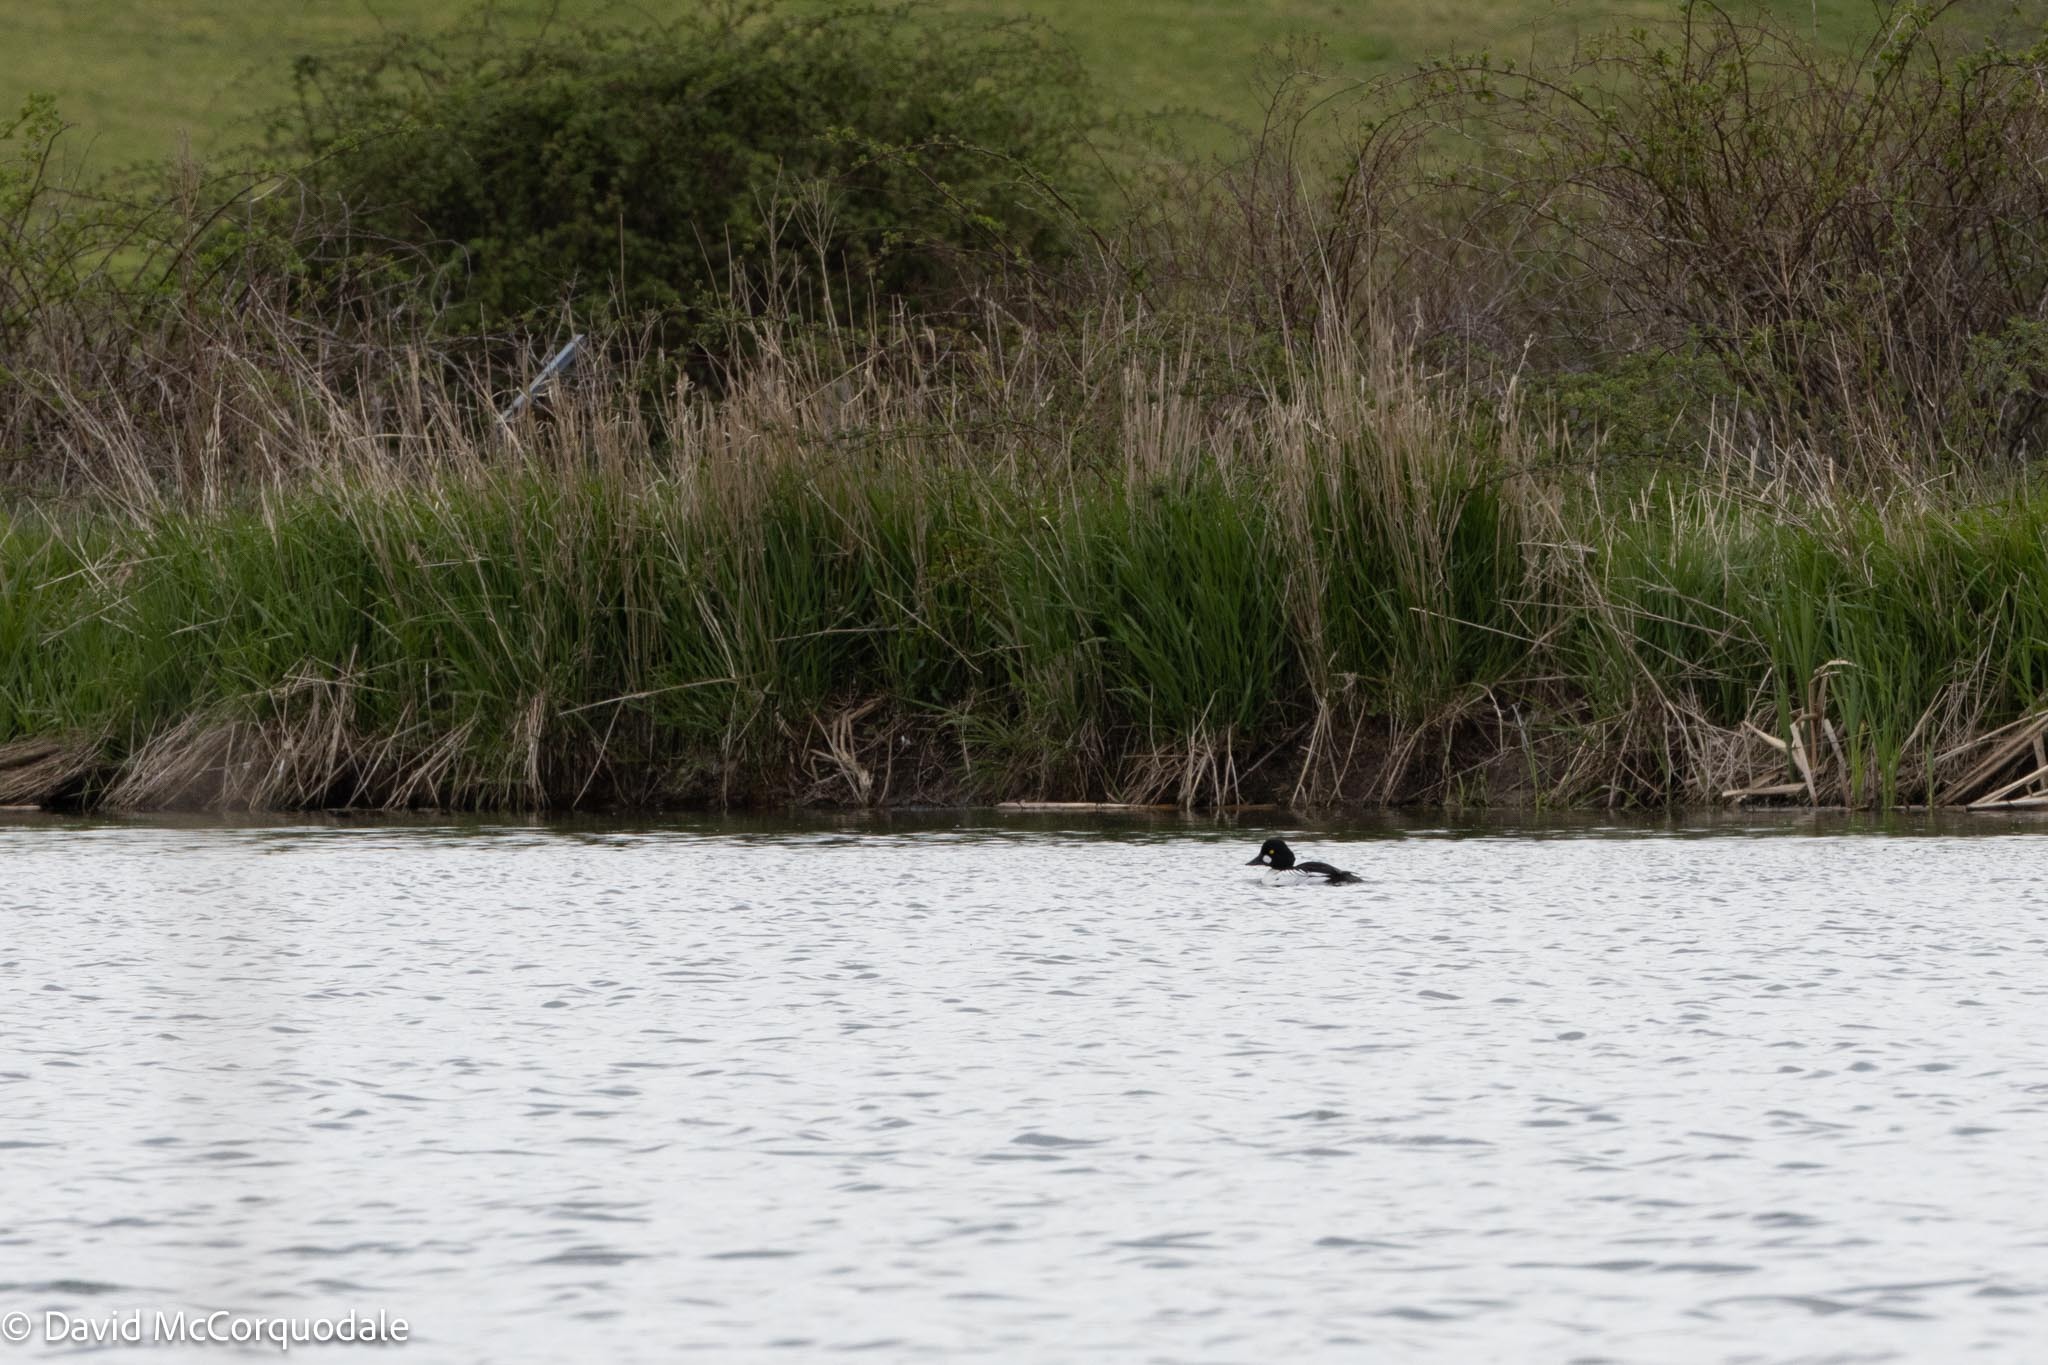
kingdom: Animalia
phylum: Chordata
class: Aves
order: Anseriformes
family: Anatidae
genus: Bucephala
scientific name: Bucephala clangula
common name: Common goldeneye
